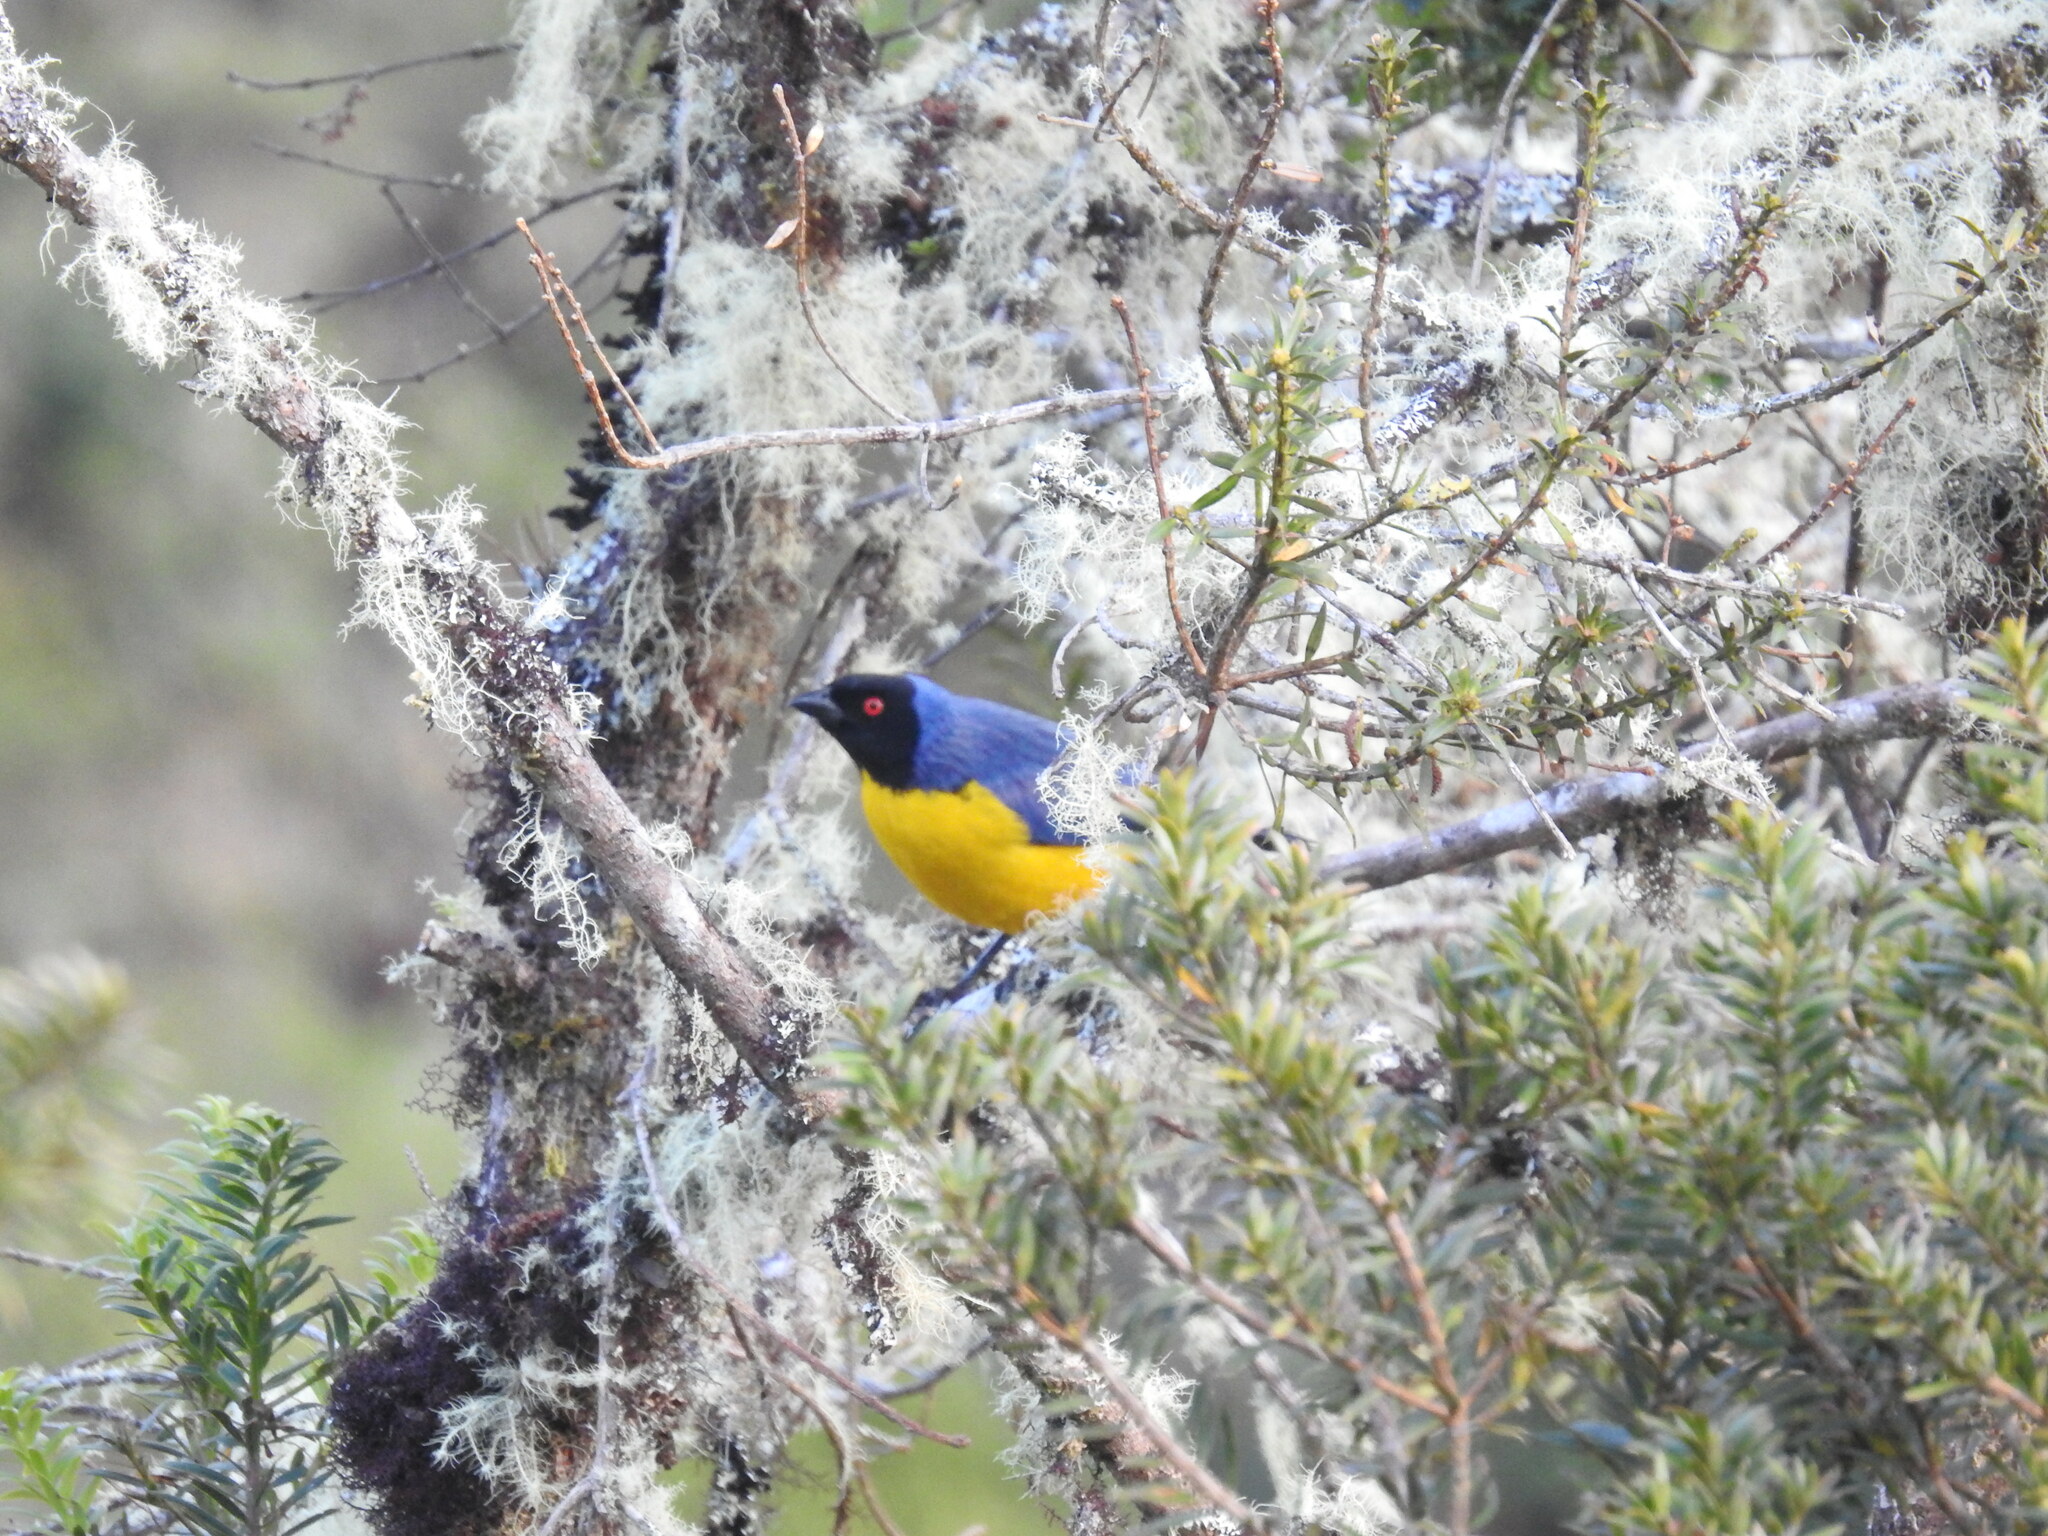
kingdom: Animalia
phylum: Chordata
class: Aves
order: Passeriformes
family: Thraupidae
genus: Buthraupis
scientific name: Buthraupis montana
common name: Hooded mountain tanager
